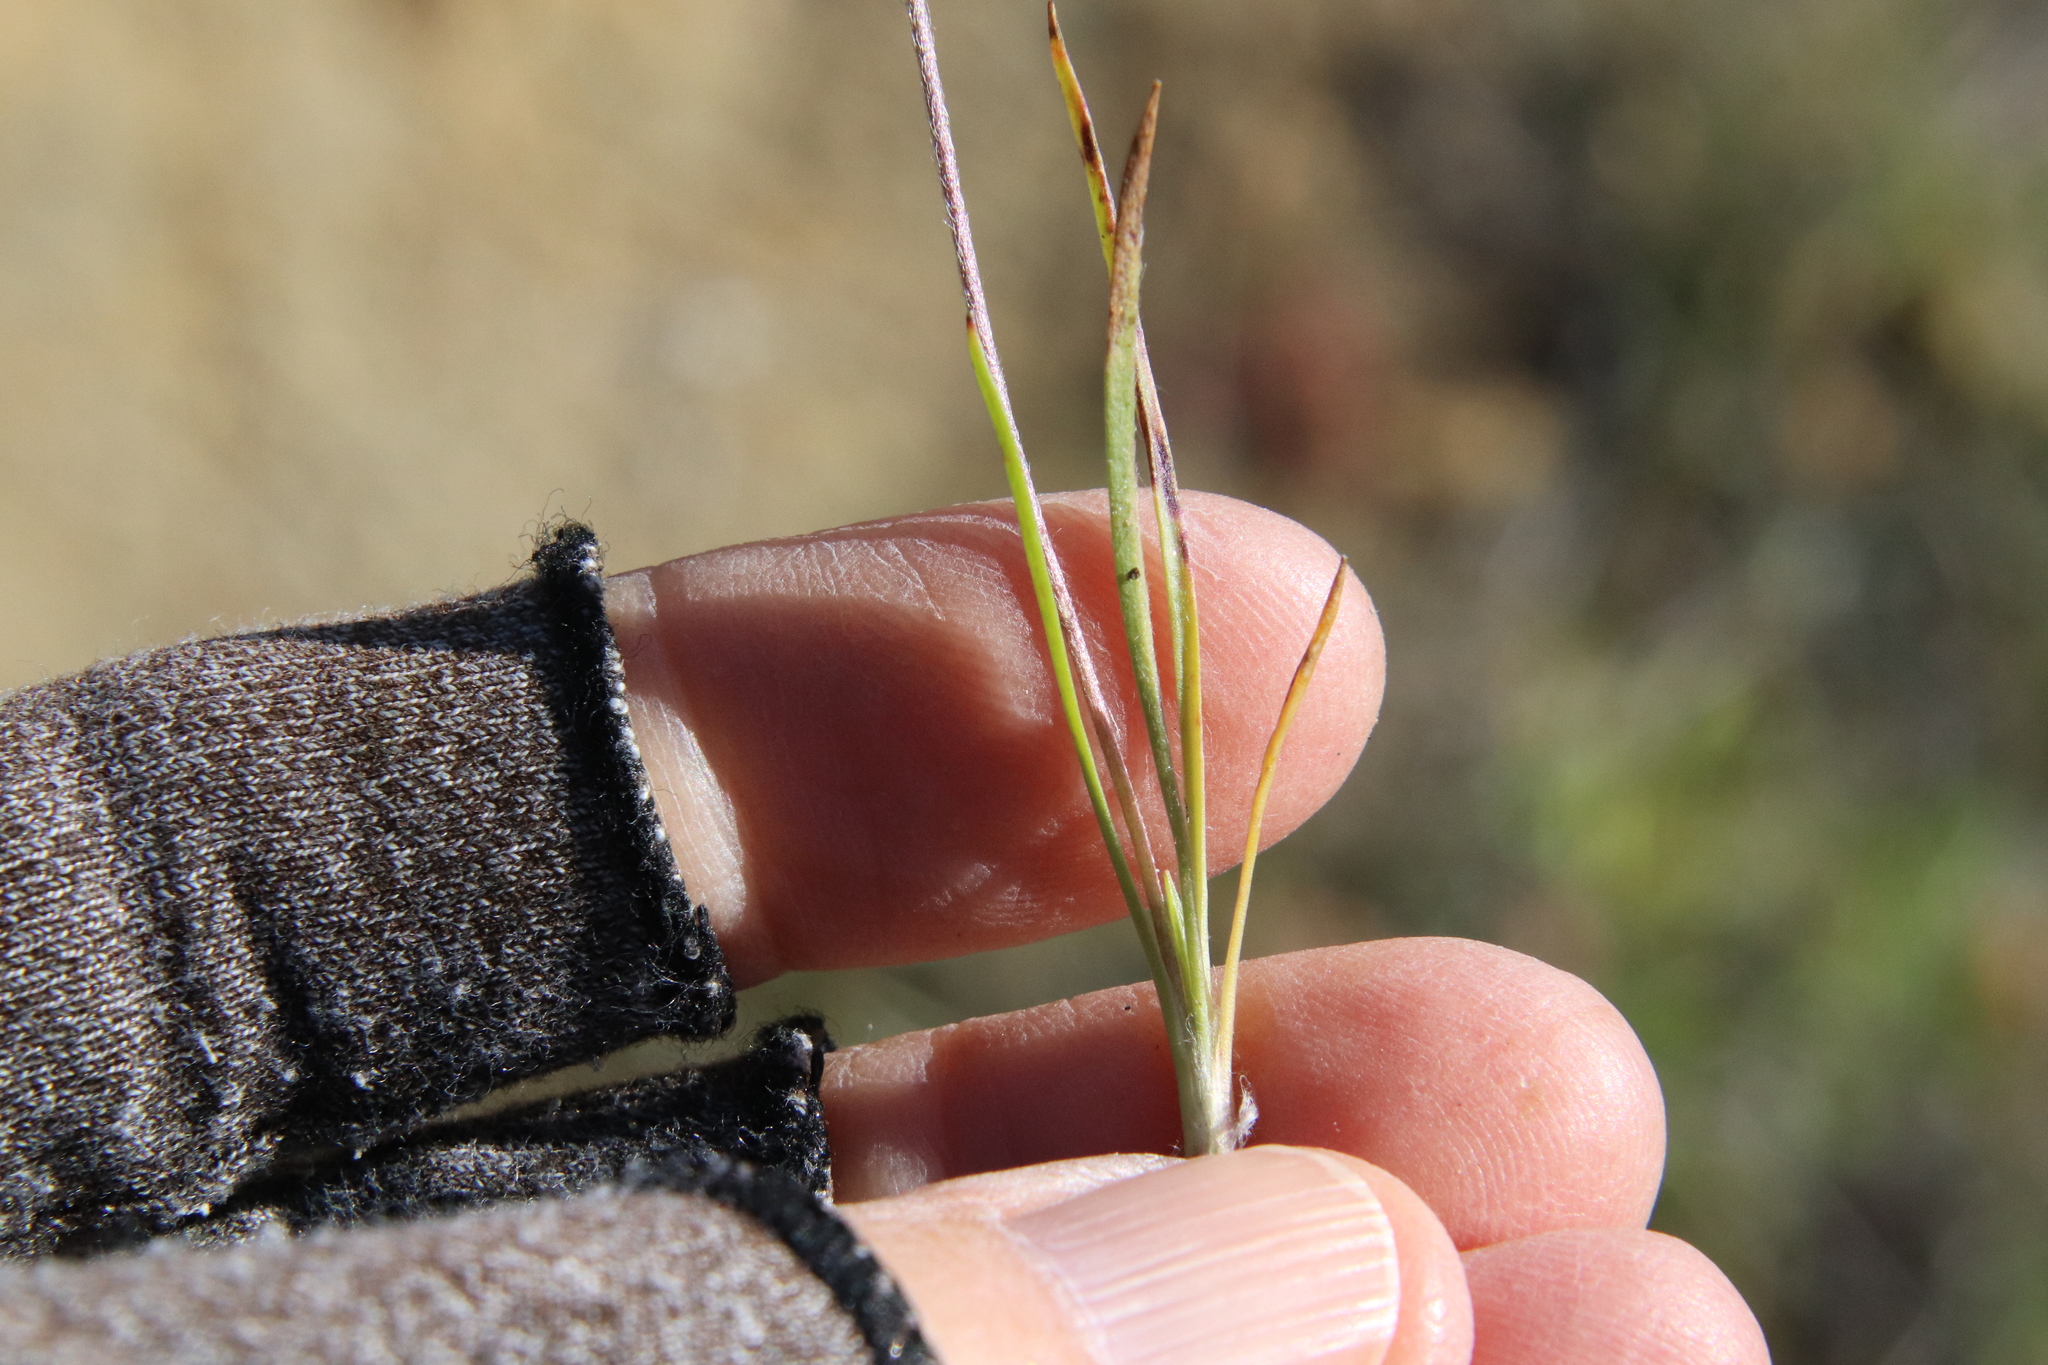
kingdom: Plantae
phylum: Tracheophyta
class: Magnoliopsida
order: Lamiales
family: Plantaginaceae
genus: Plantago
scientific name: Plantago patagonica
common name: Patagonia indian-wheat
